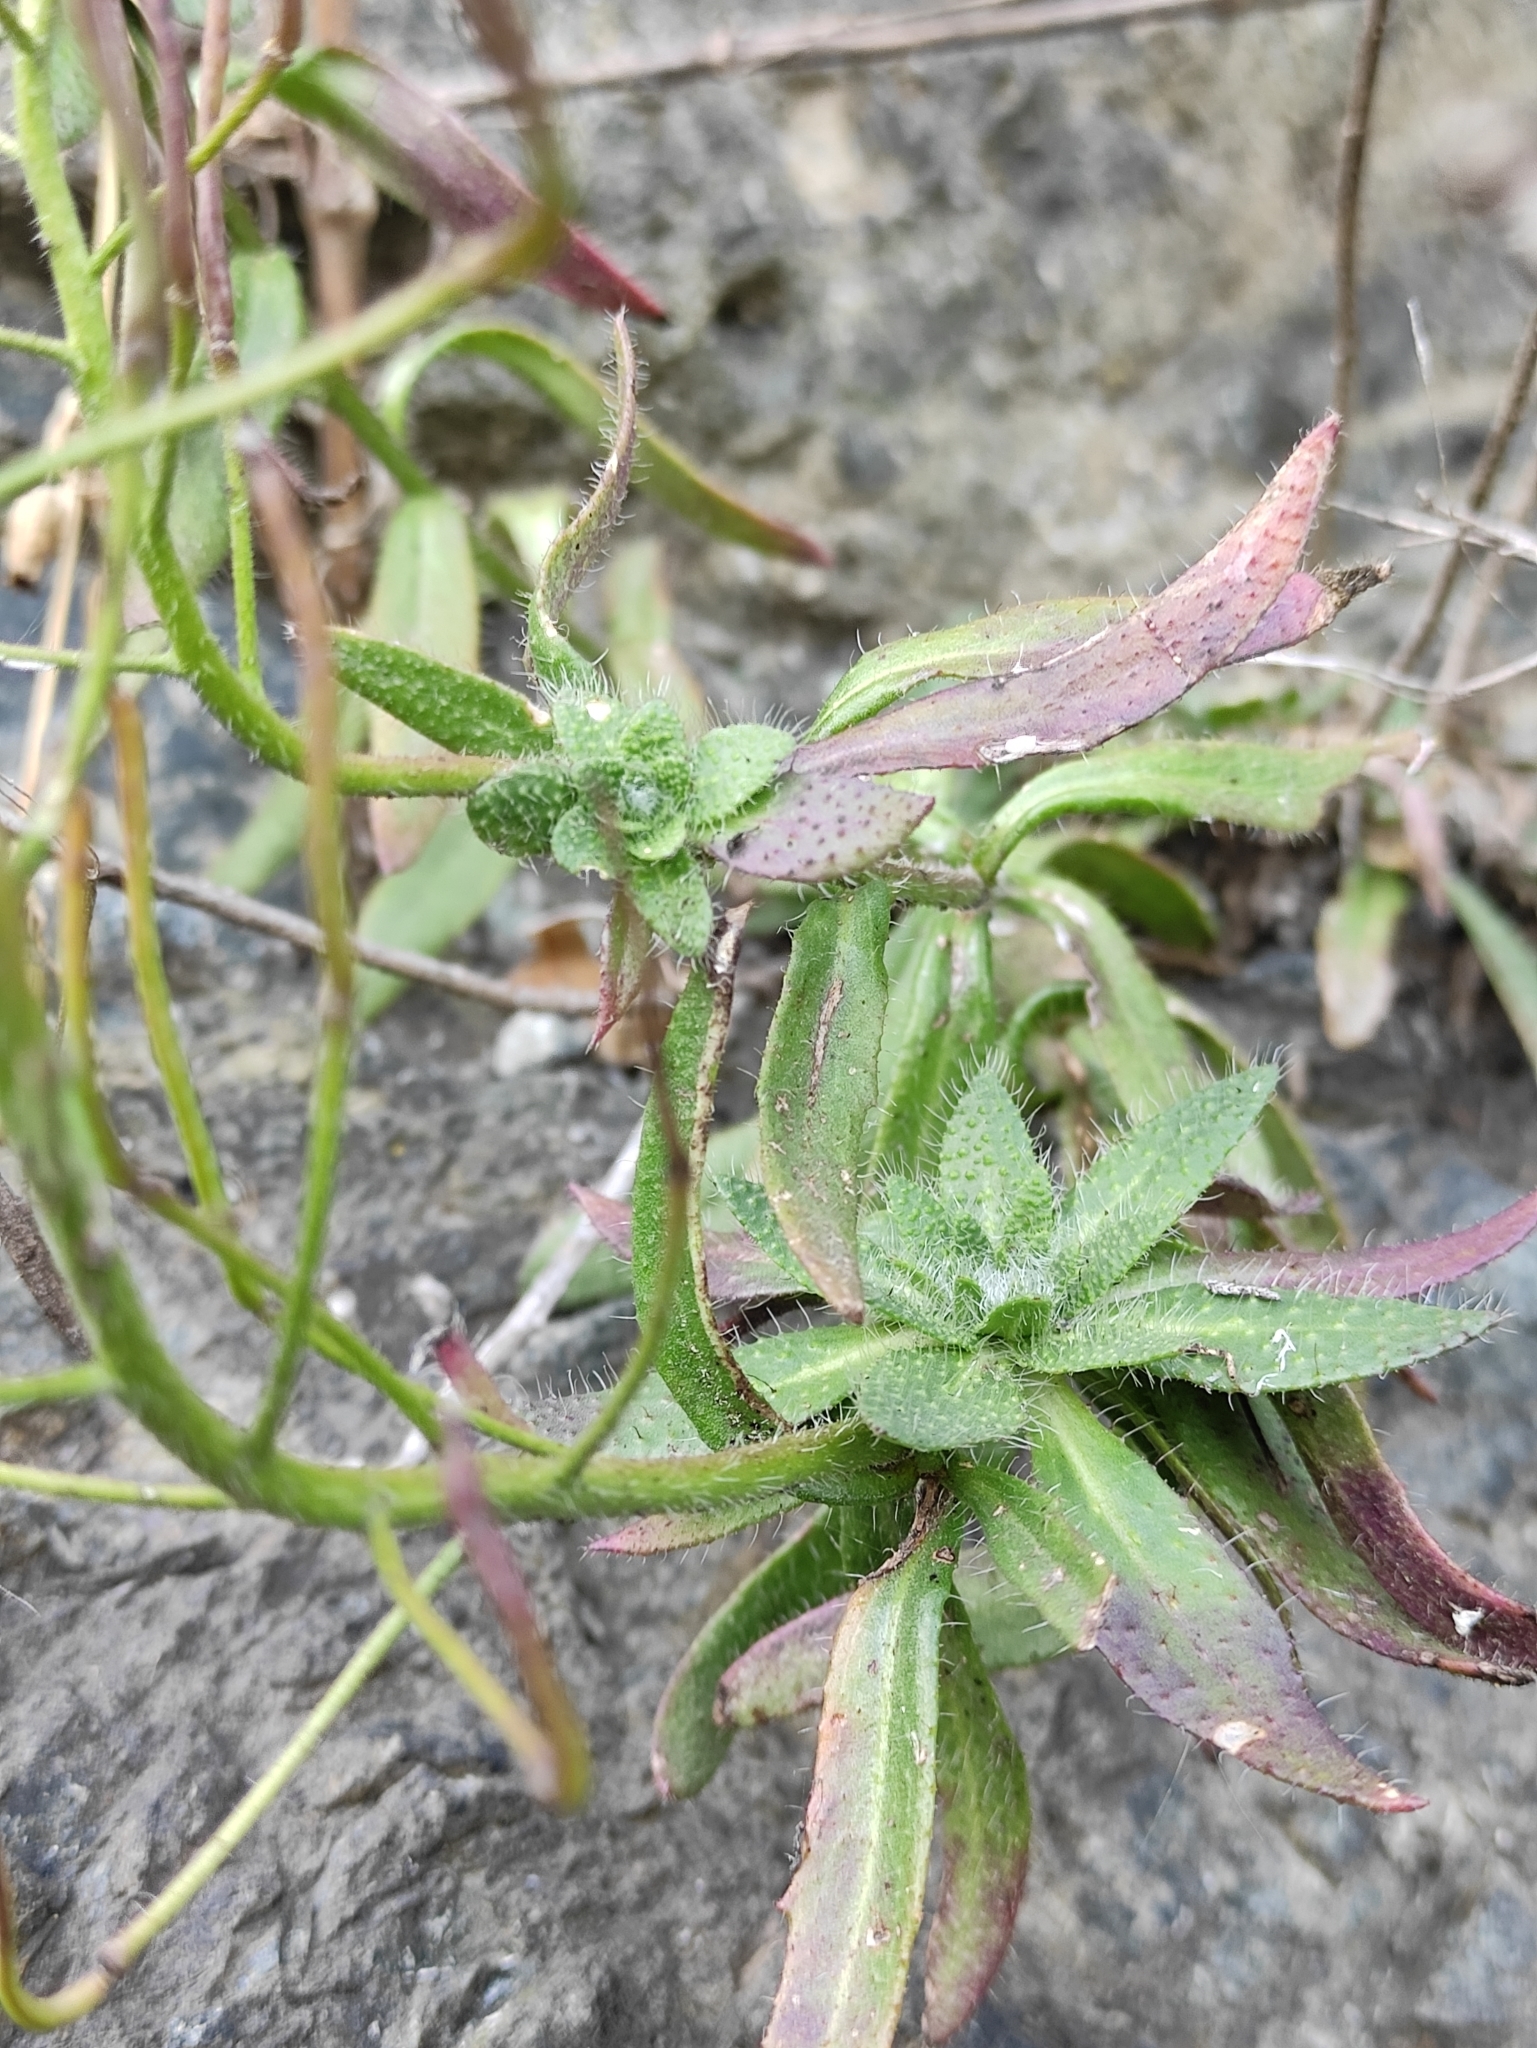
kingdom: Plantae
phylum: Tracheophyta
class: Magnoliopsida
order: Brassicales
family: Brassicaceae
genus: Clausia
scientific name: Clausia aprica
